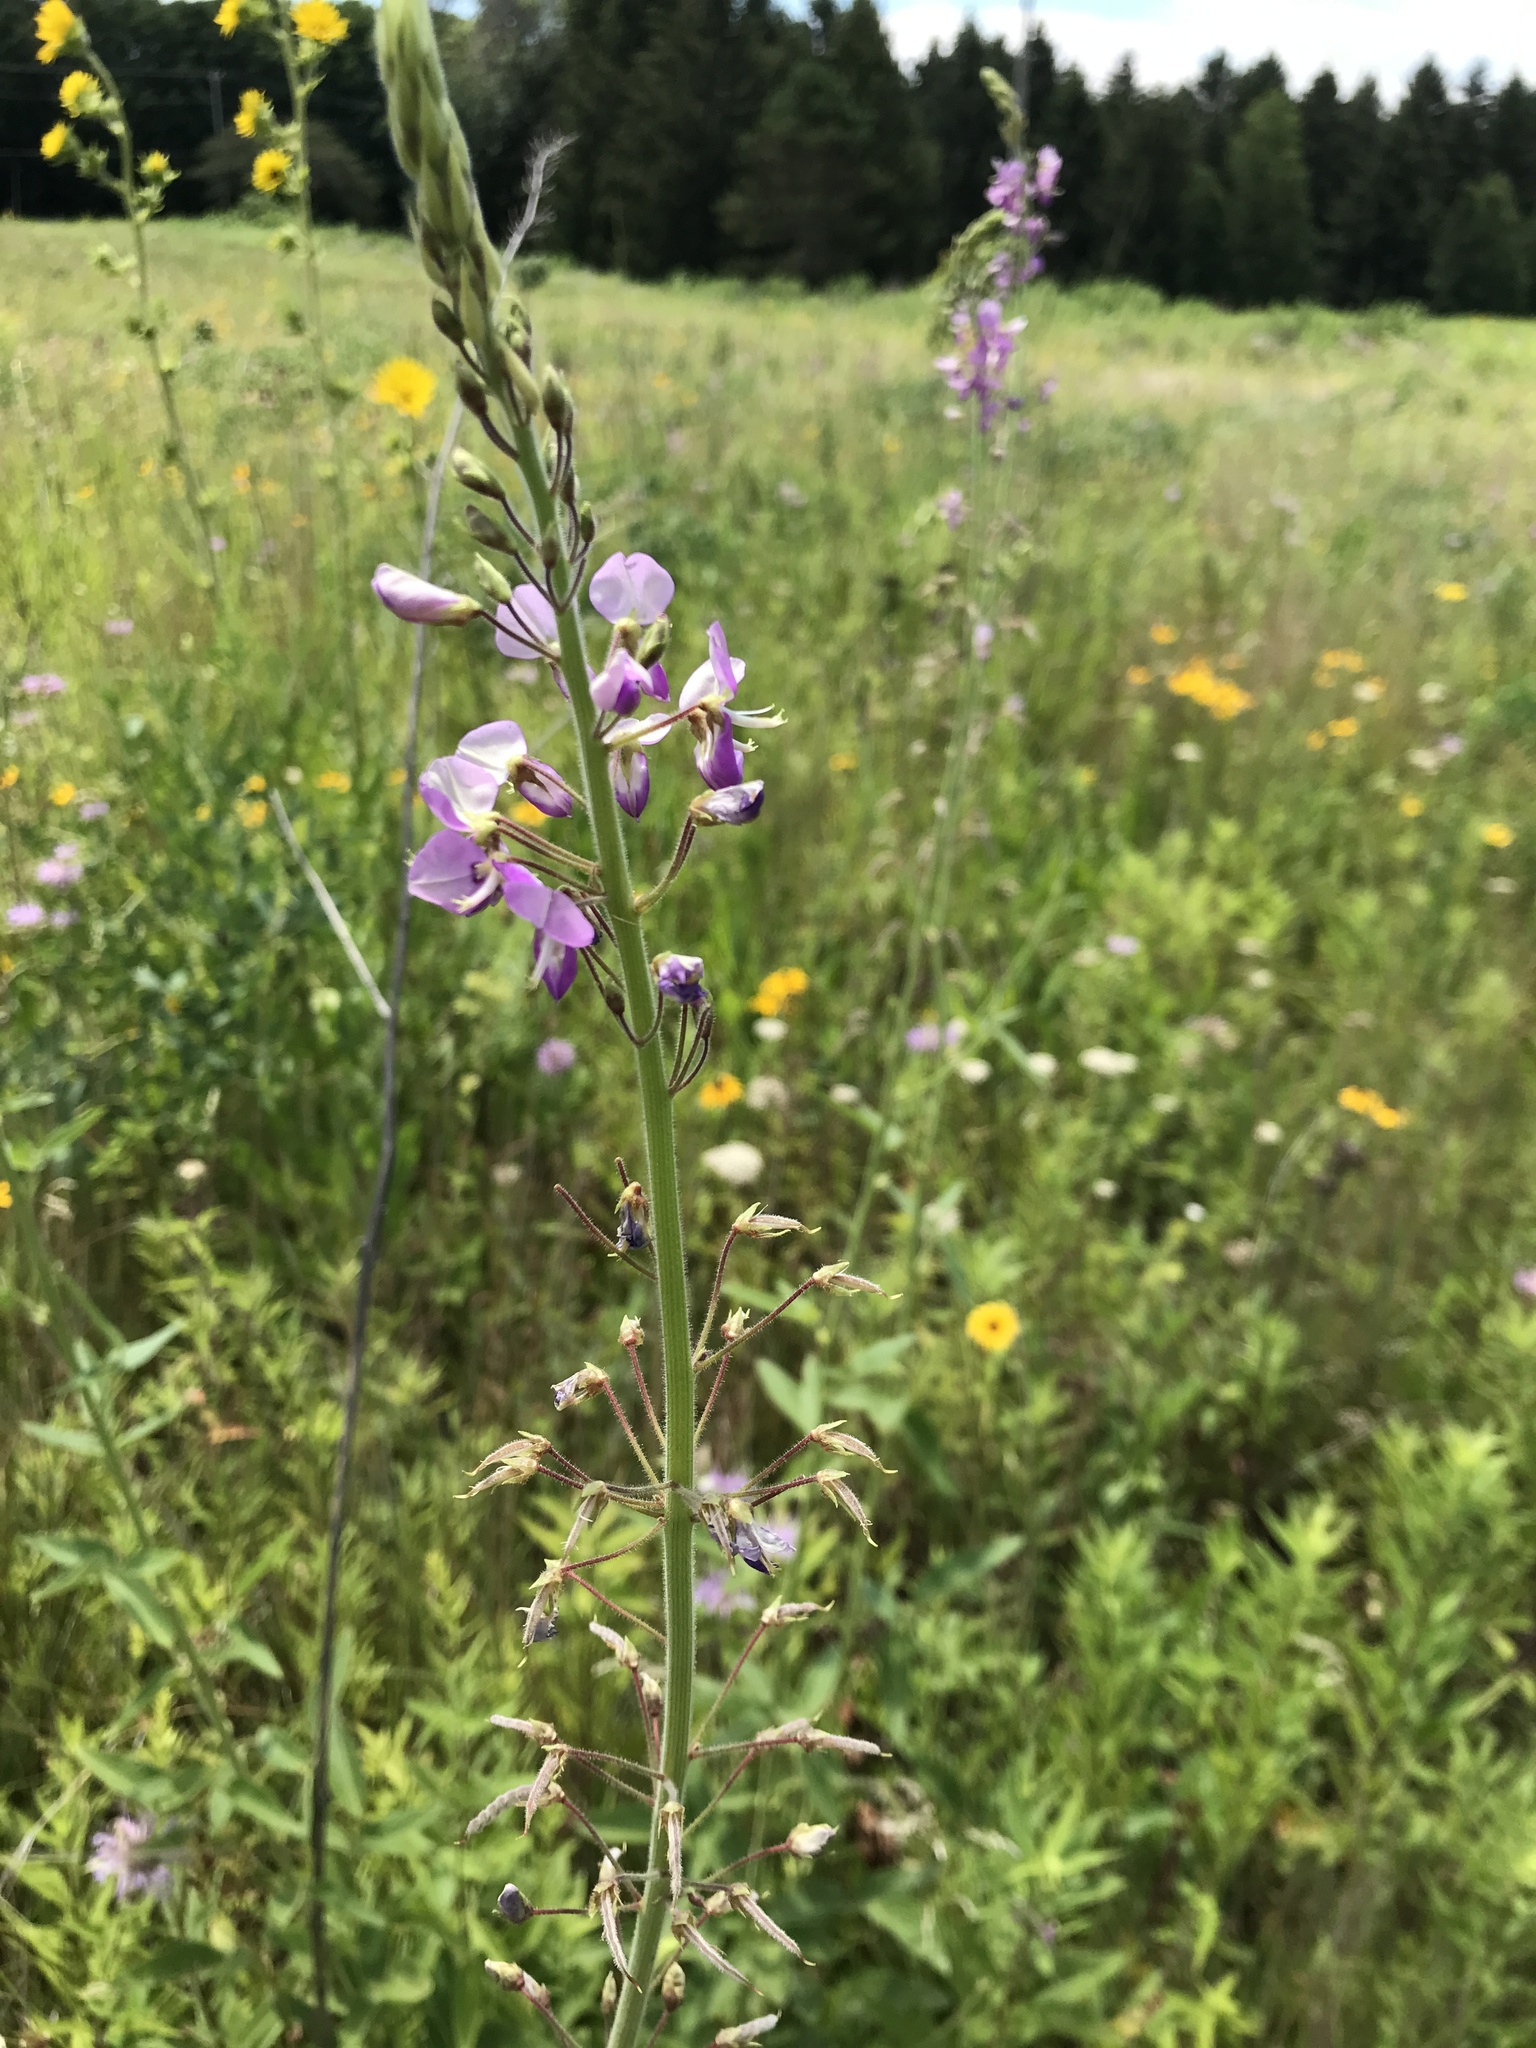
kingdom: Plantae
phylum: Tracheophyta
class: Magnoliopsida
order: Fabales
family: Fabaceae
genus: Desmodium
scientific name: Desmodium illinoense
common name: Illinois tick-clover
